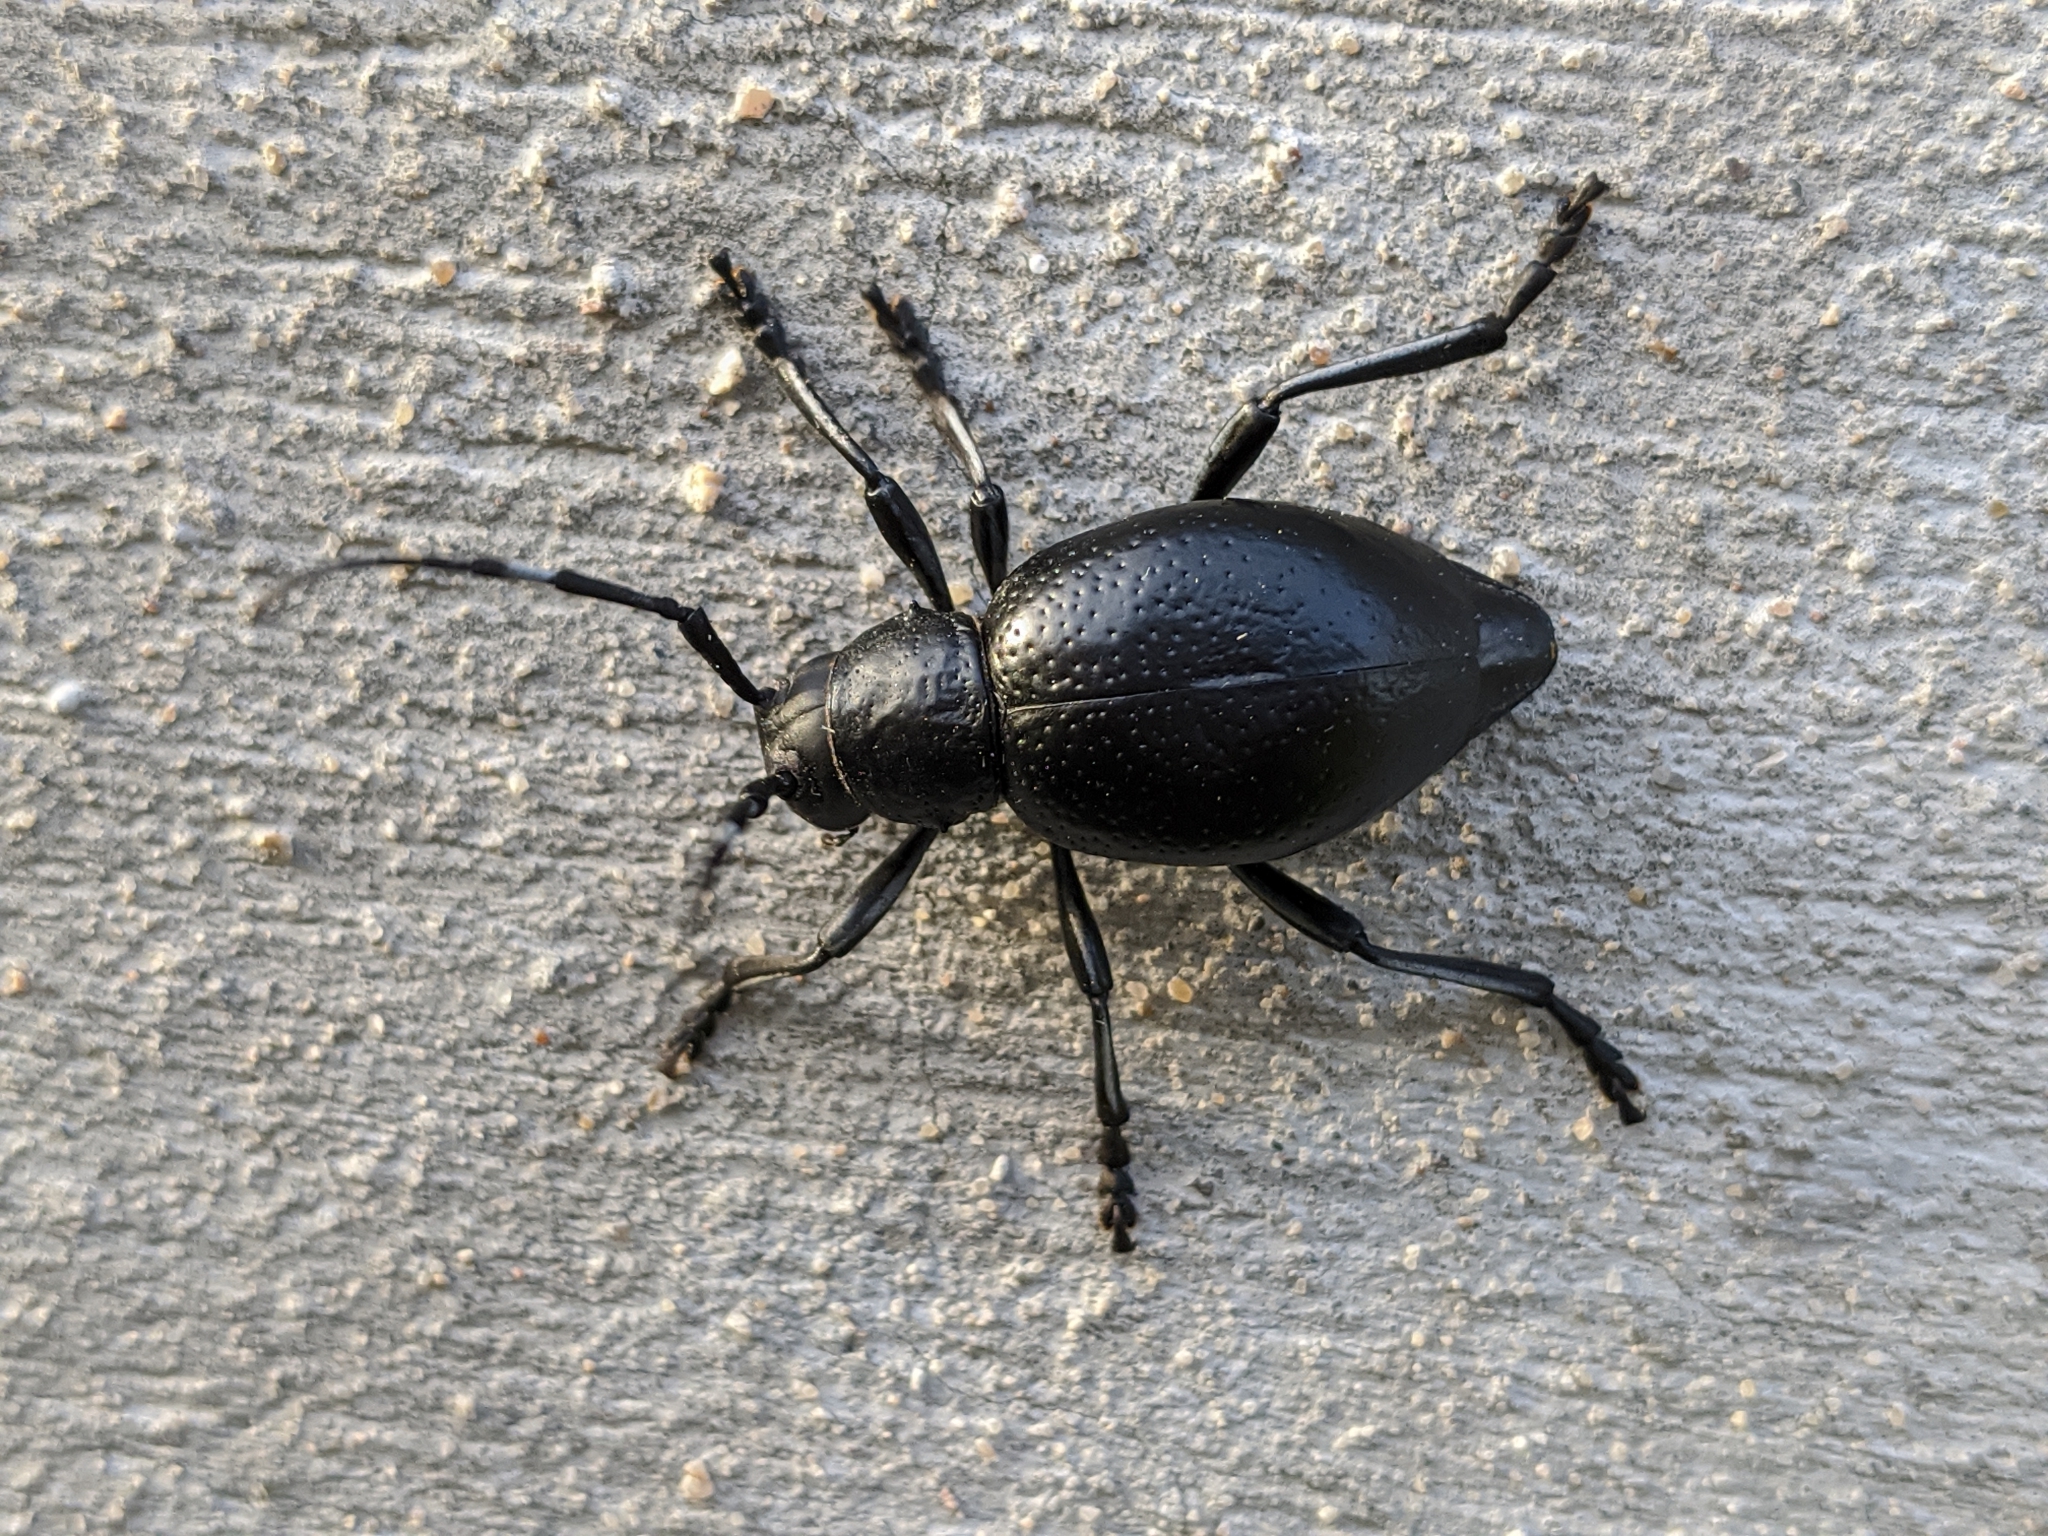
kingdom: Animalia
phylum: Arthropoda
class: Insecta
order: Coleoptera
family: Cerambycidae
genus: Moneilema
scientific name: Moneilema armatum
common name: Long-horned beetle
